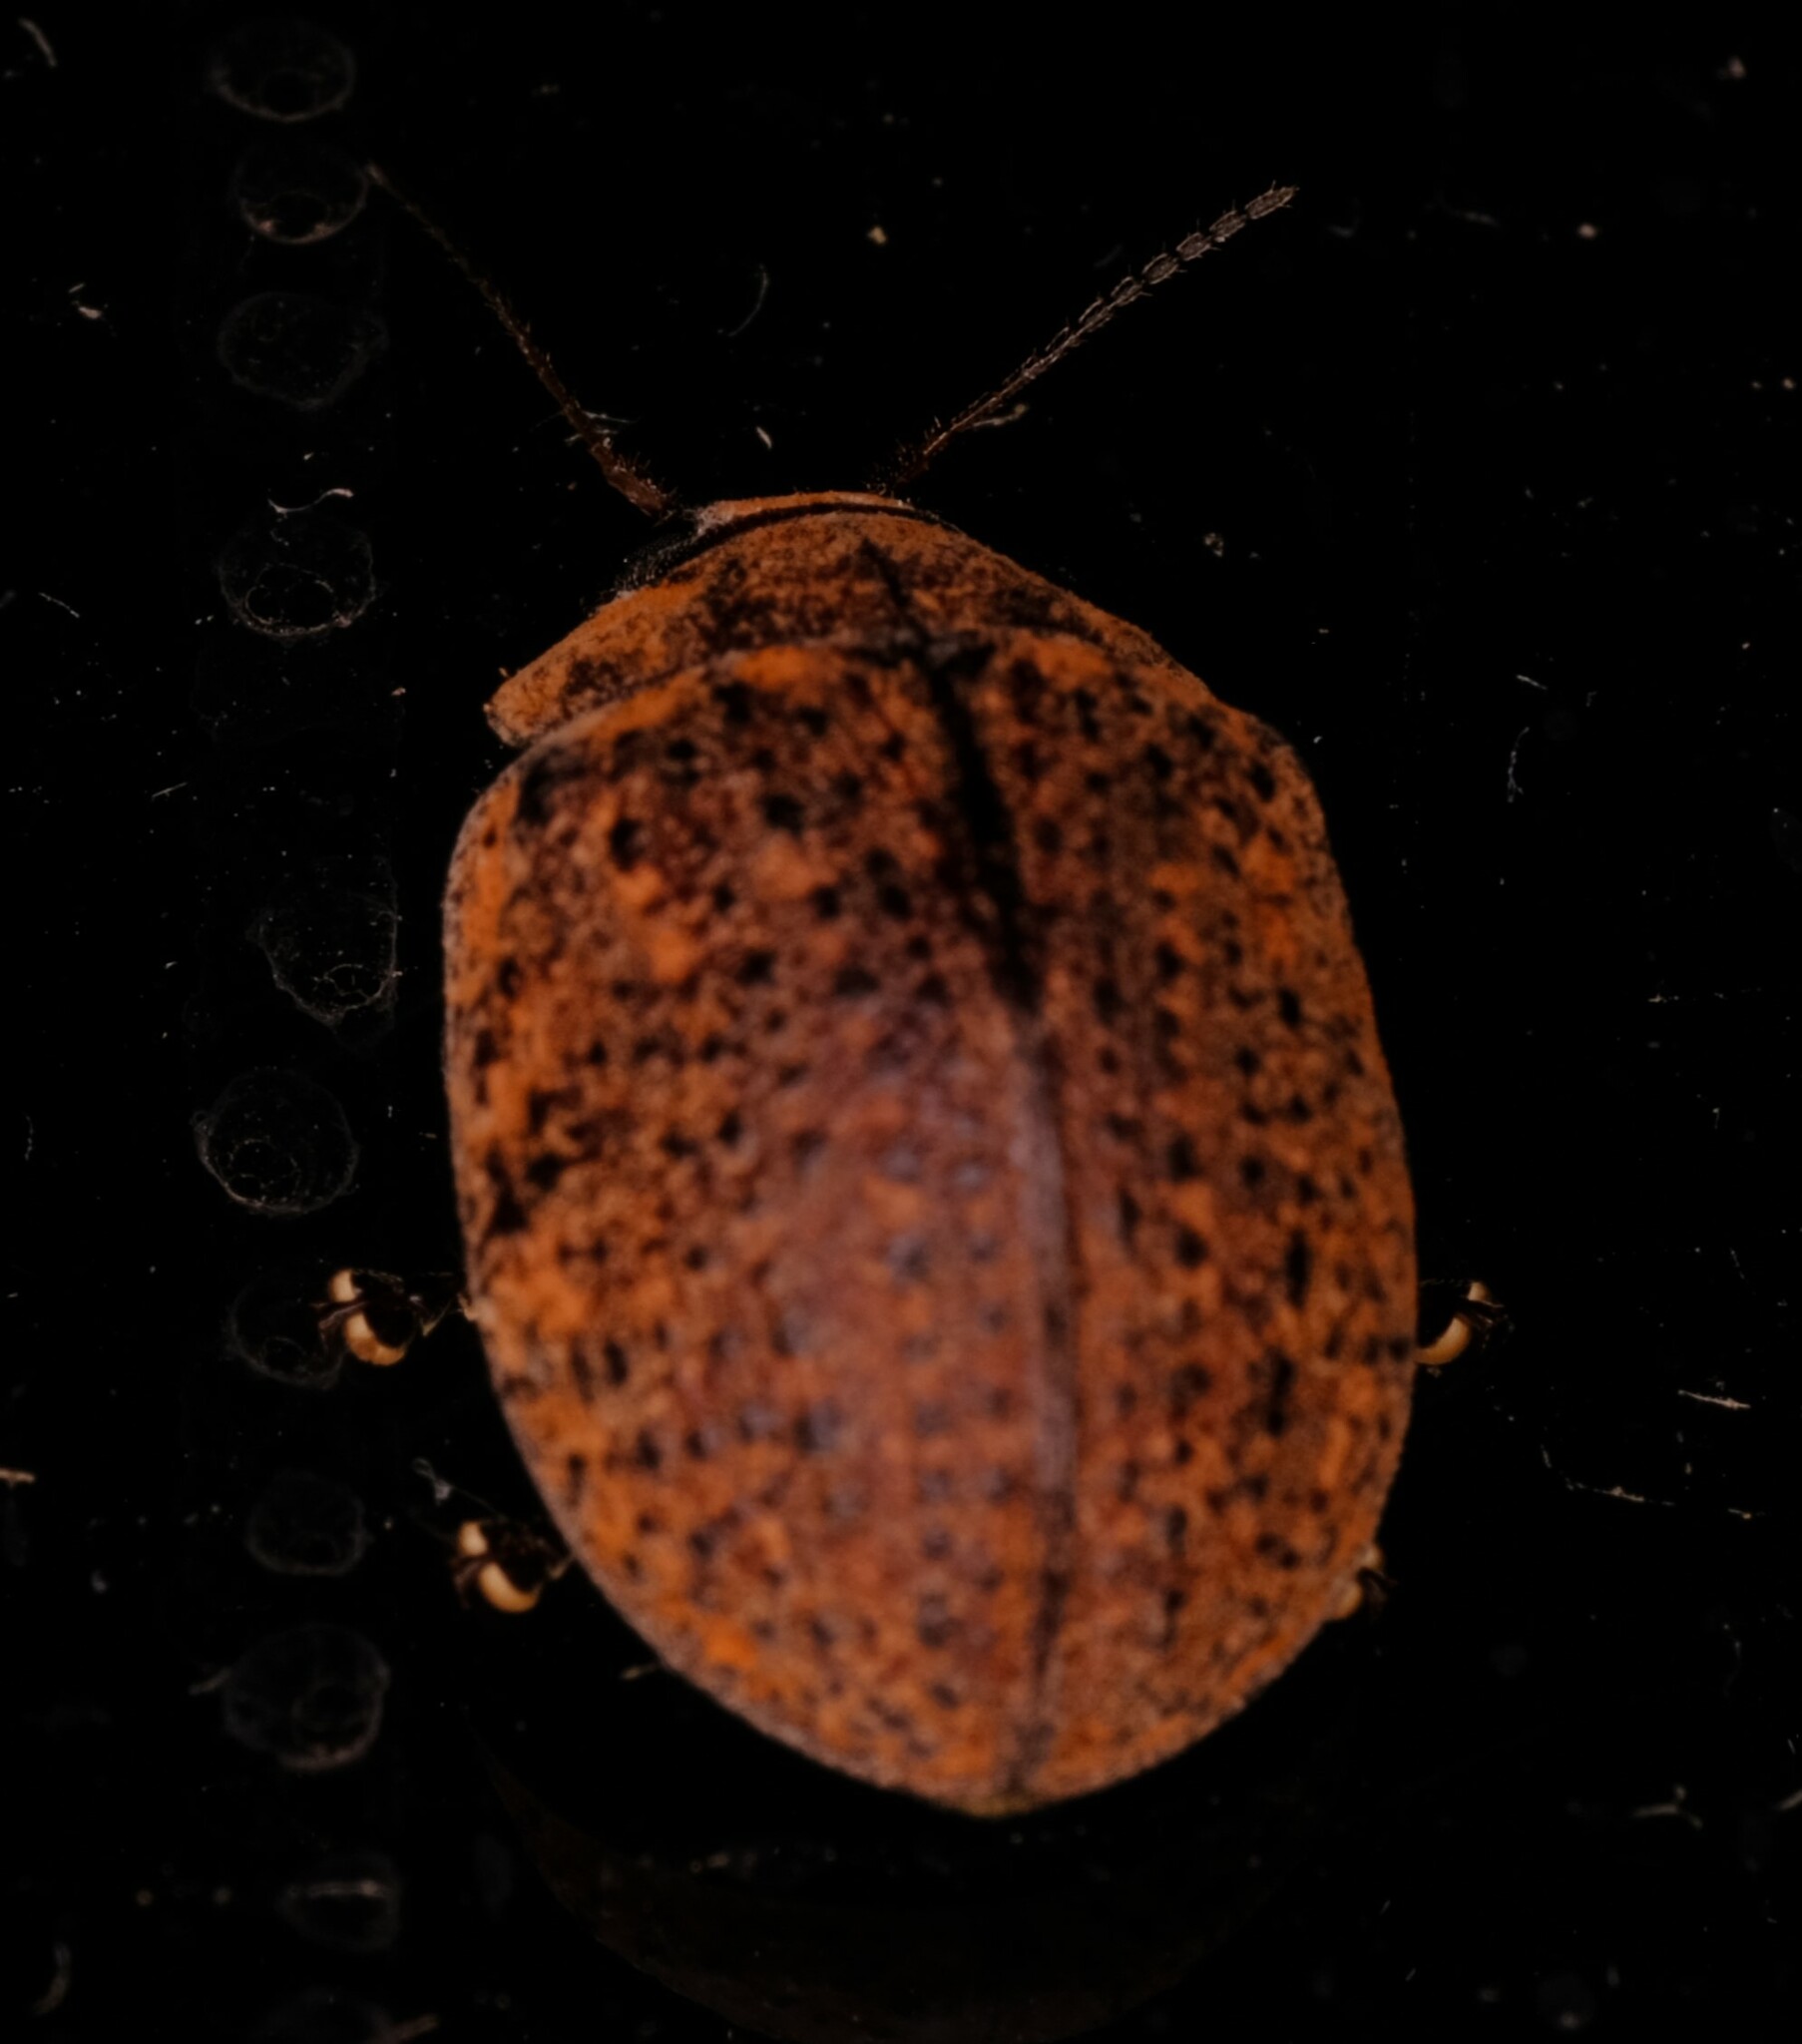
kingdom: Animalia
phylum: Arthropoda
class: Insecta
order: Coleoptera
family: Chrysomelidae
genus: Trachymela
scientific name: Trachymela
